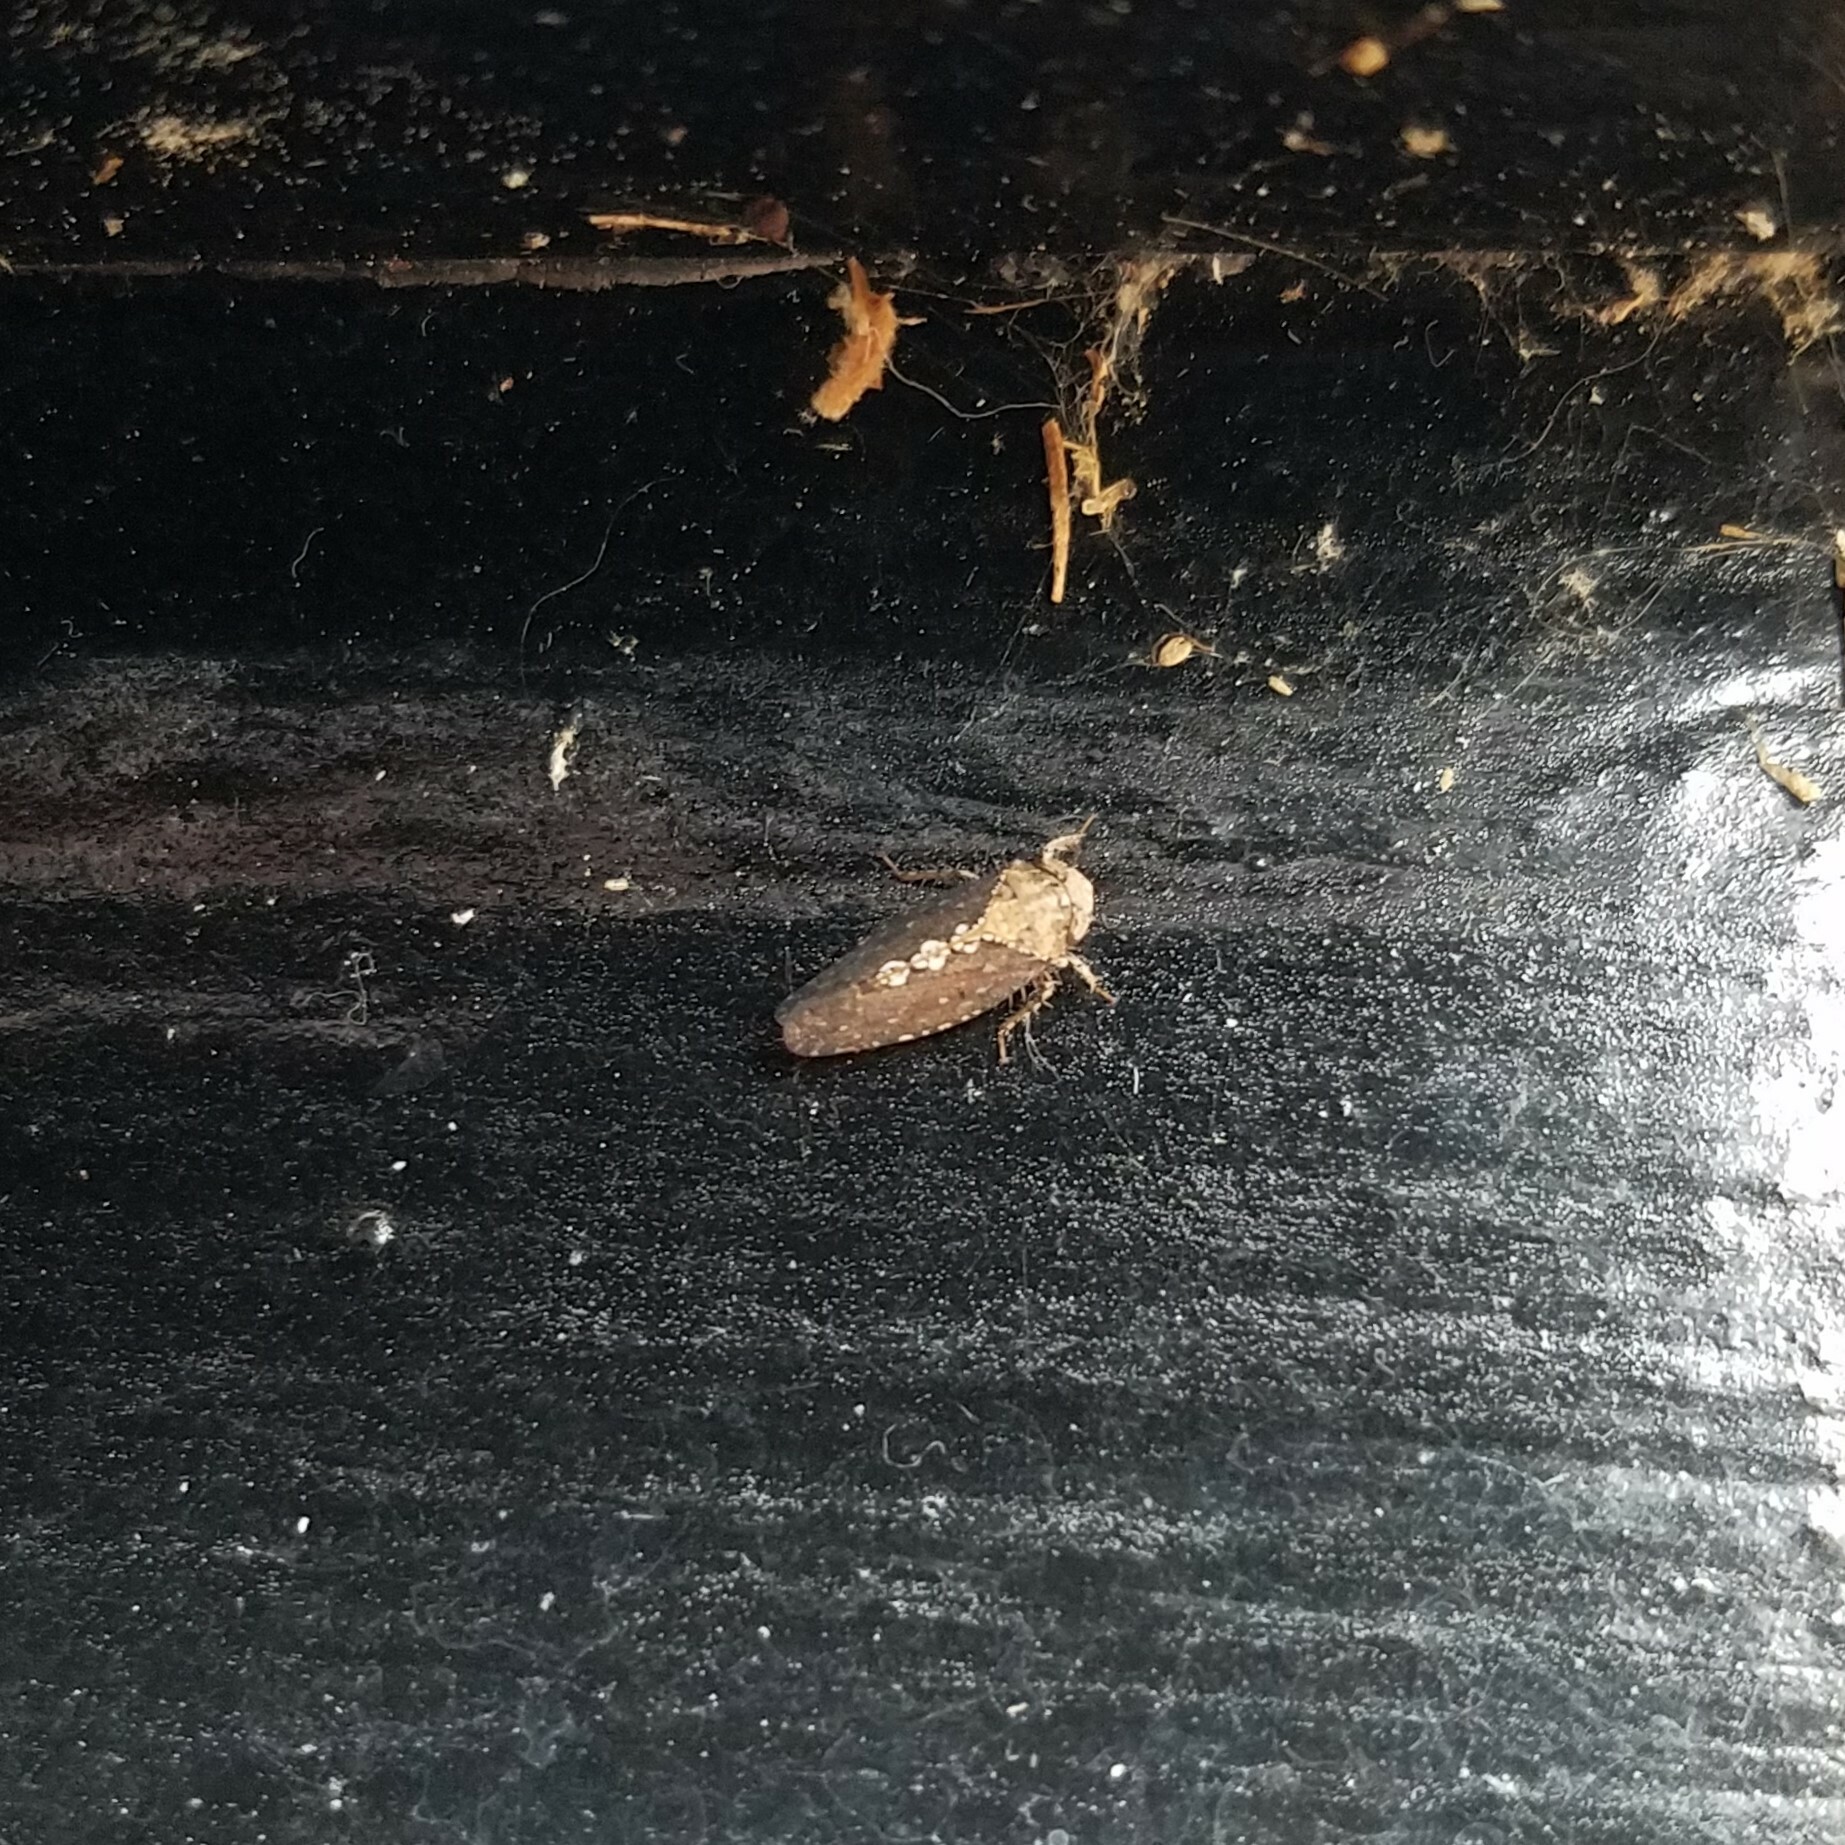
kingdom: Animalia
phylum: Arthropoda
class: Insecta
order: Hemiptera
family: Cicadellidae
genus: Excultanus
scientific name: Excultanus excultus
